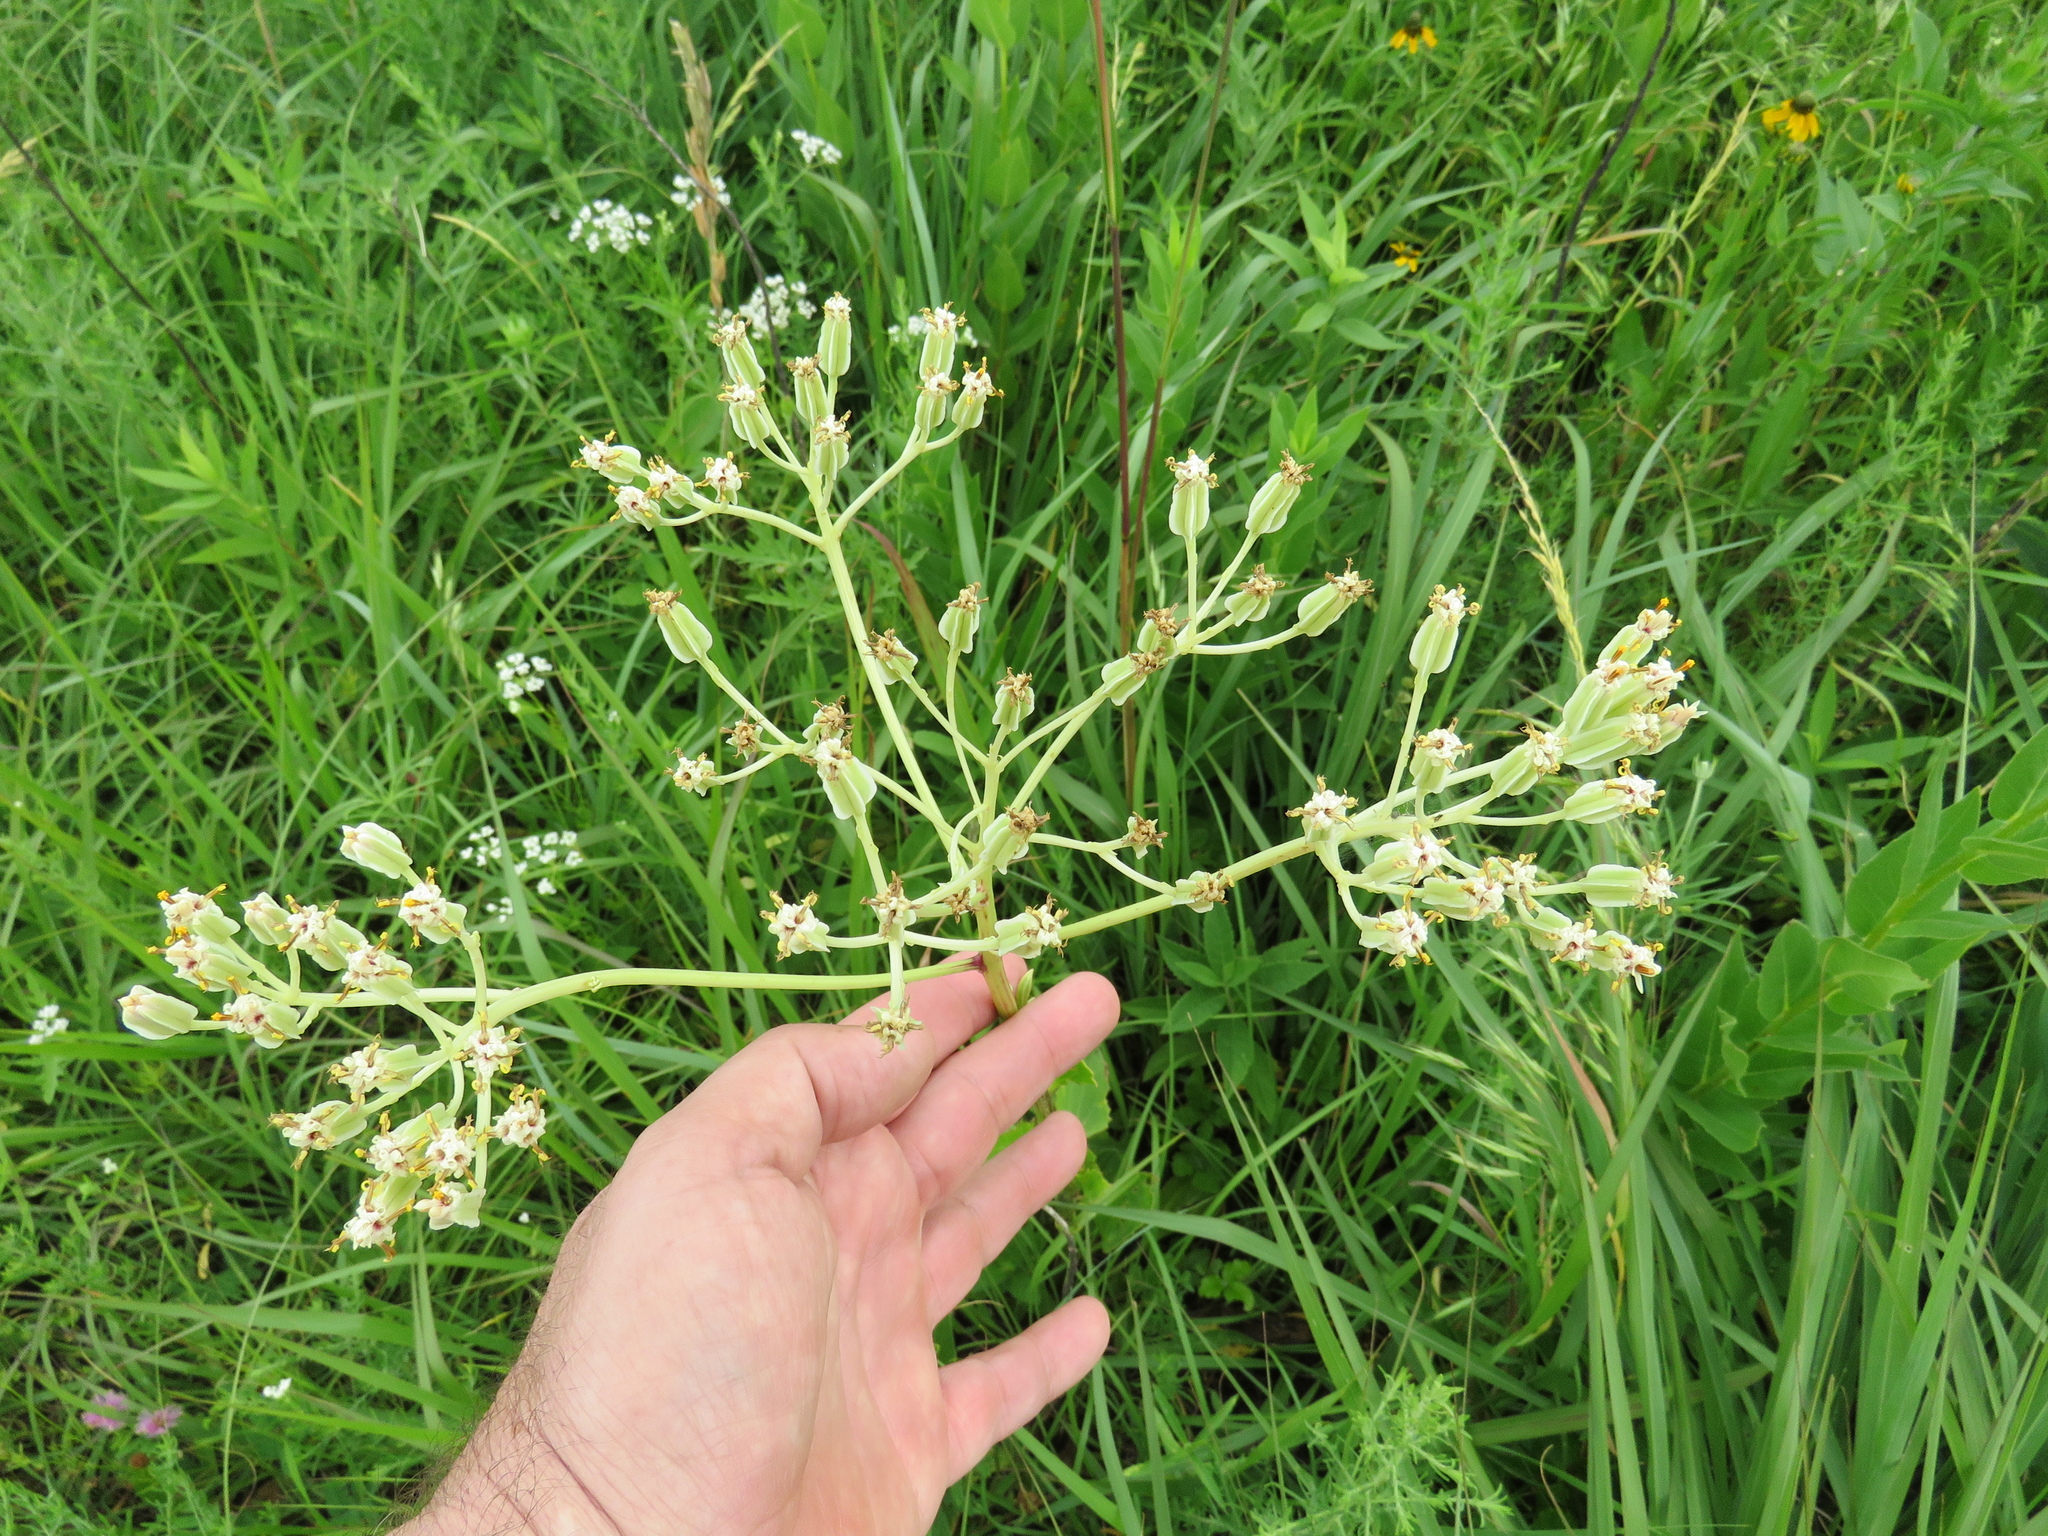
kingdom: Plantae
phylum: Tracheophyta
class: Magnoliopsida
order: Asterales
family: Asteraceae
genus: Arnoglossum
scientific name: Arnoglossum plantagineum
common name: Groove-stemmed indian-plantain
